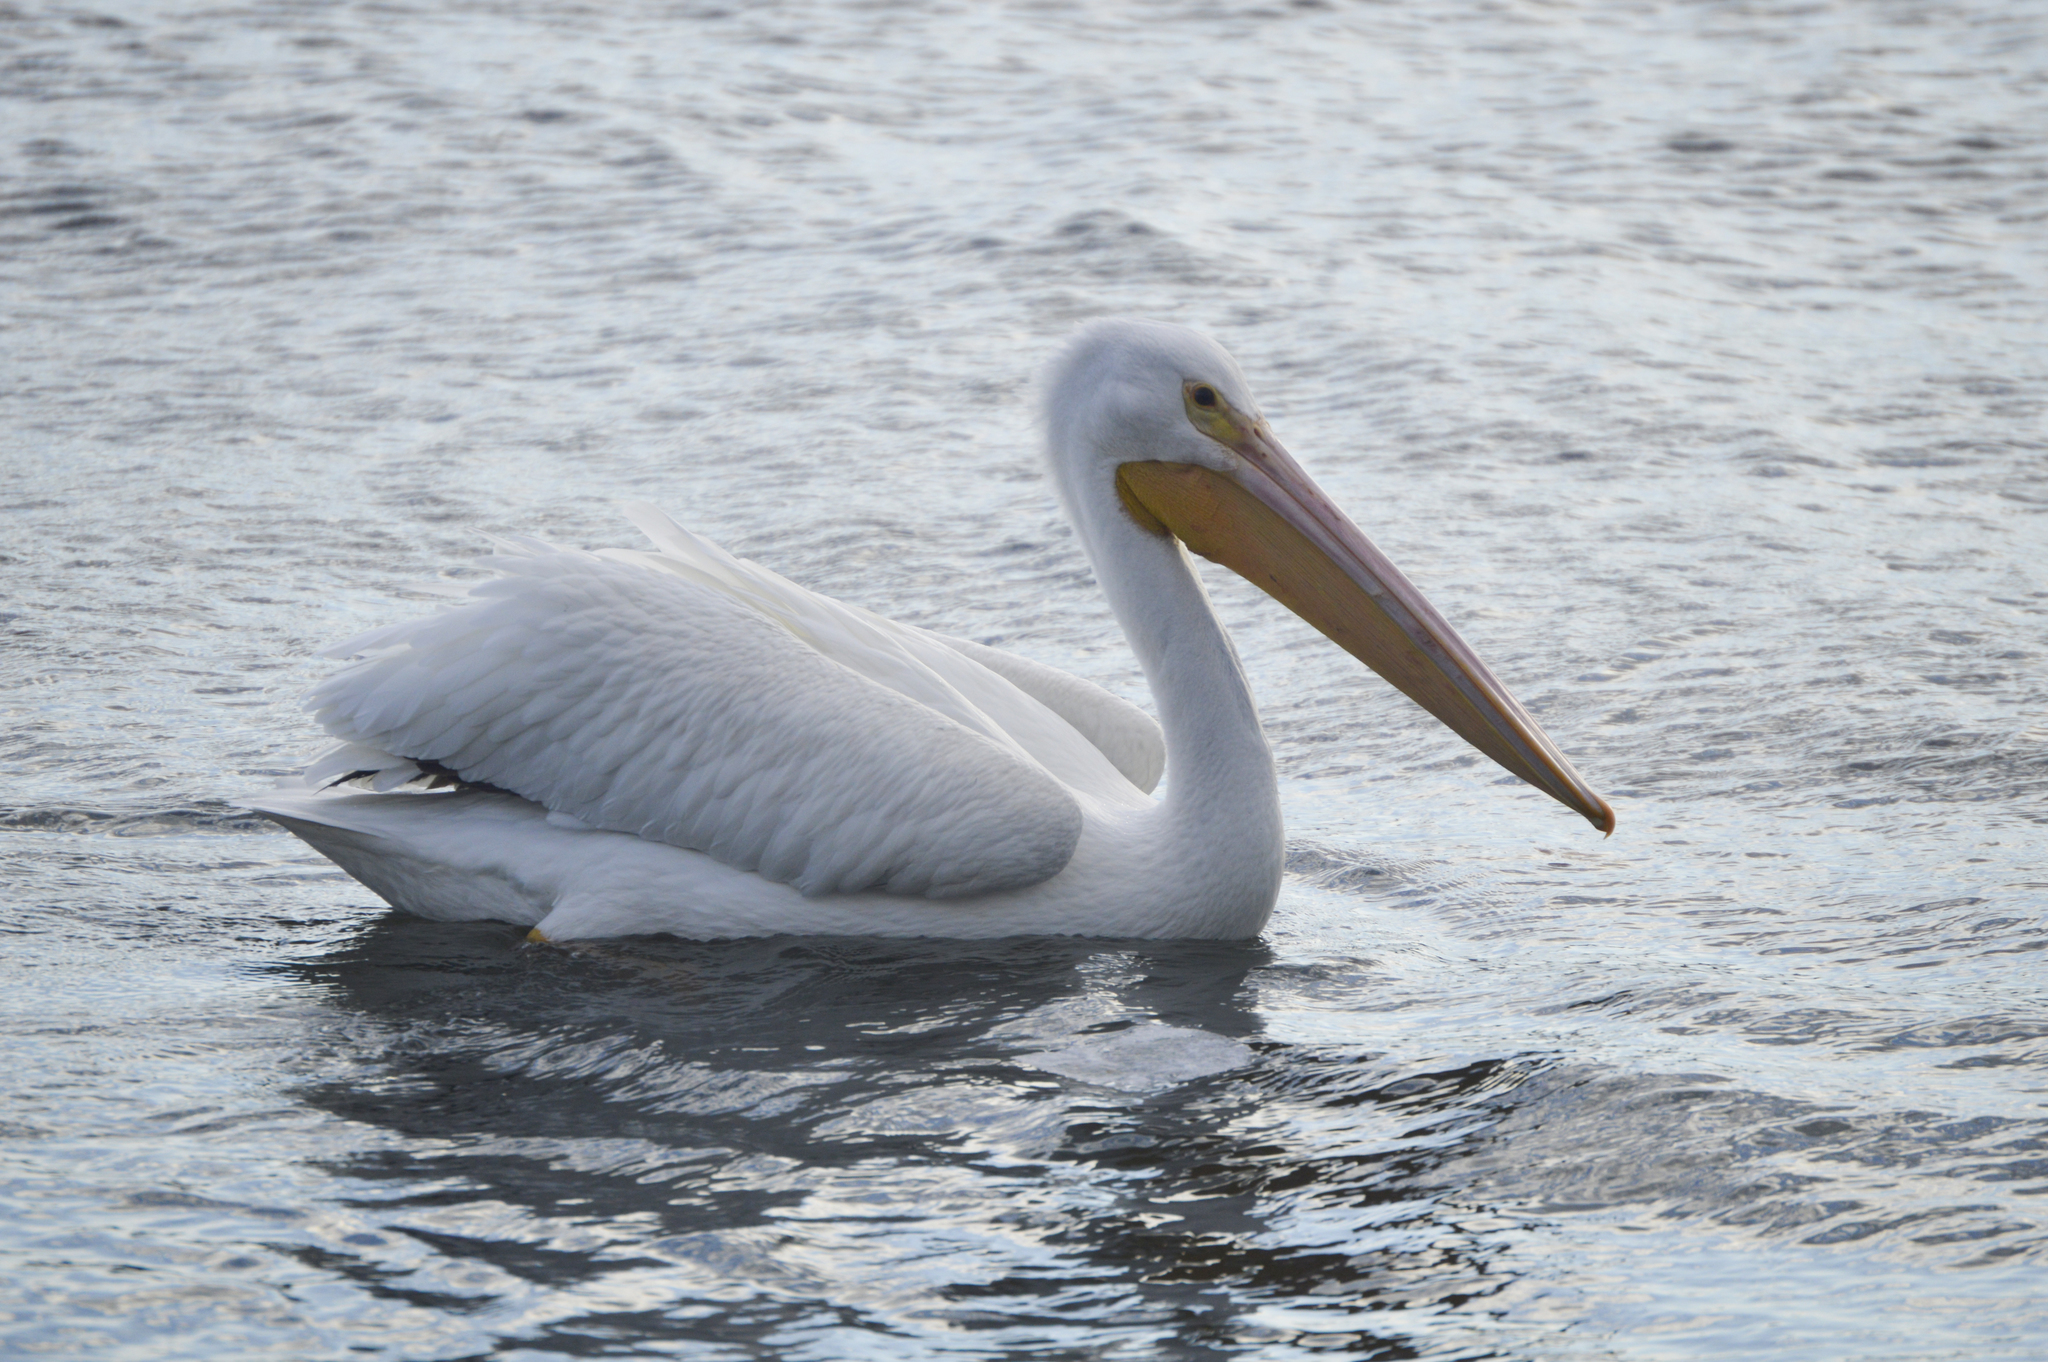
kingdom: Animalia
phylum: Chordata
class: Aves
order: Pelecaniformes
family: Pelecanidae
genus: Pelecanus
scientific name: Pelecanus erythrorhynchos
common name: American white pelican
